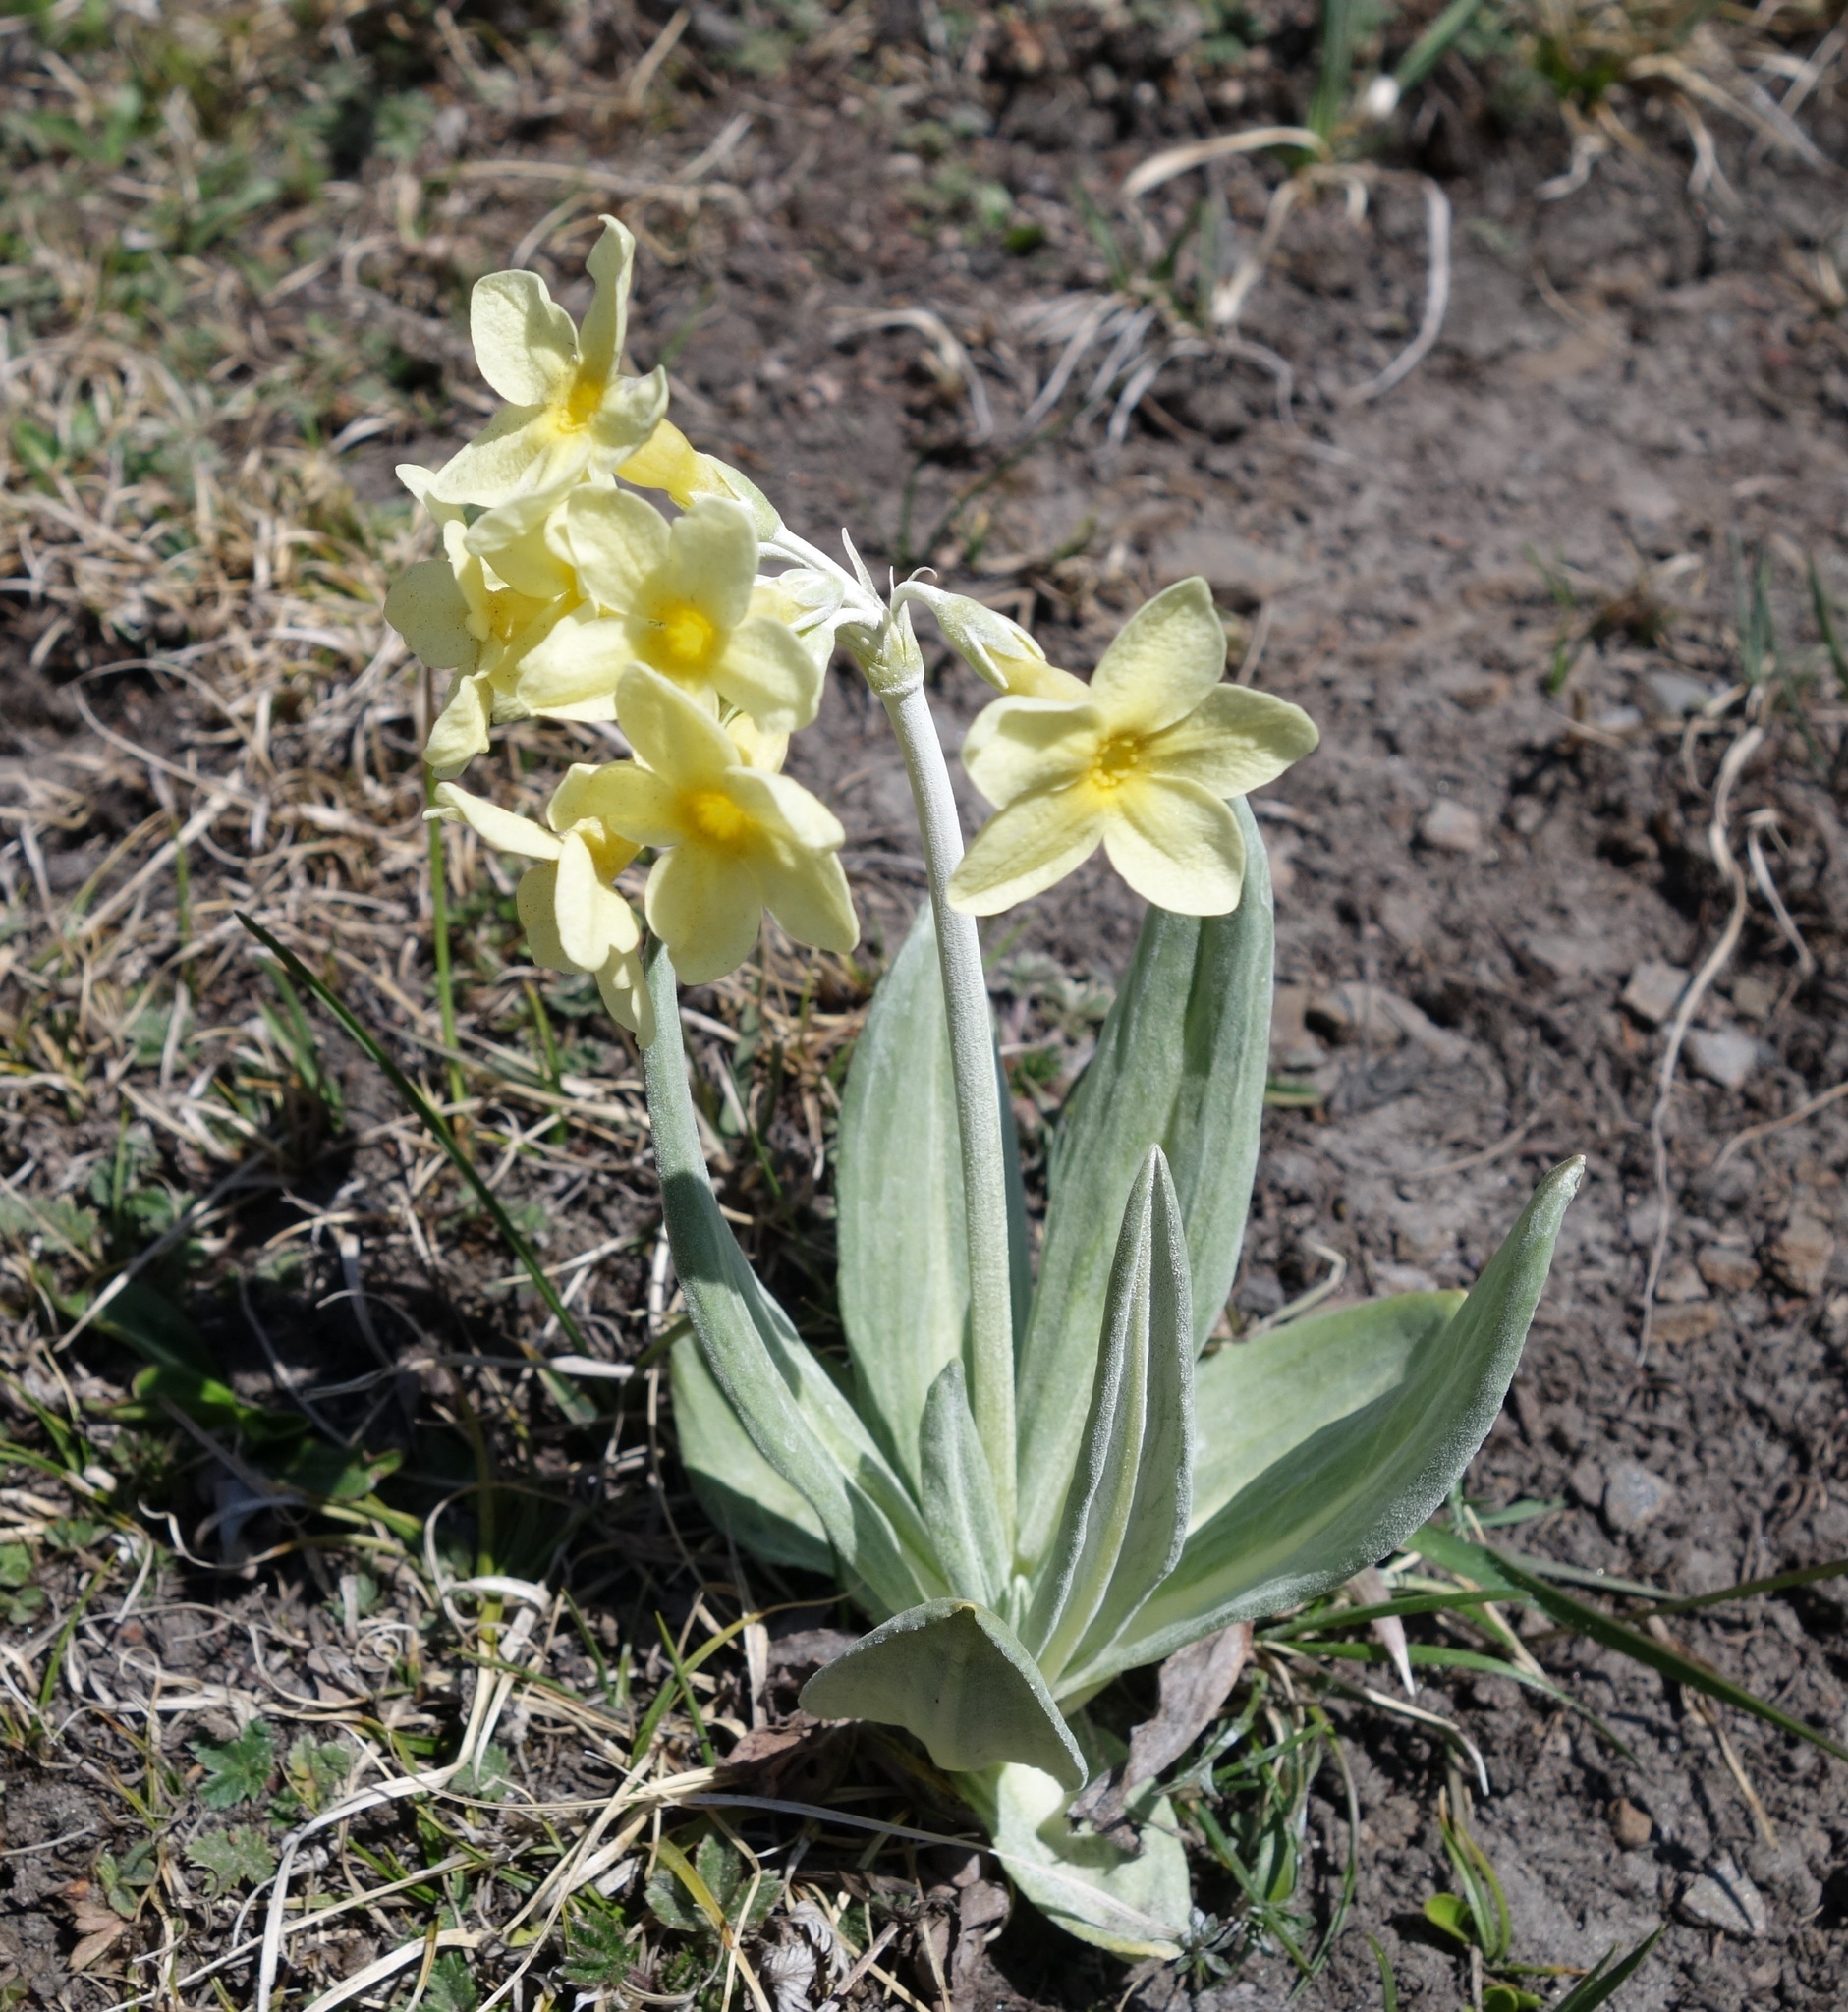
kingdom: Plantae
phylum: Tracheophyta
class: Magnoliopsida
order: Ericales
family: Primulaceae
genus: Primula
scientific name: Primula orbicularis
